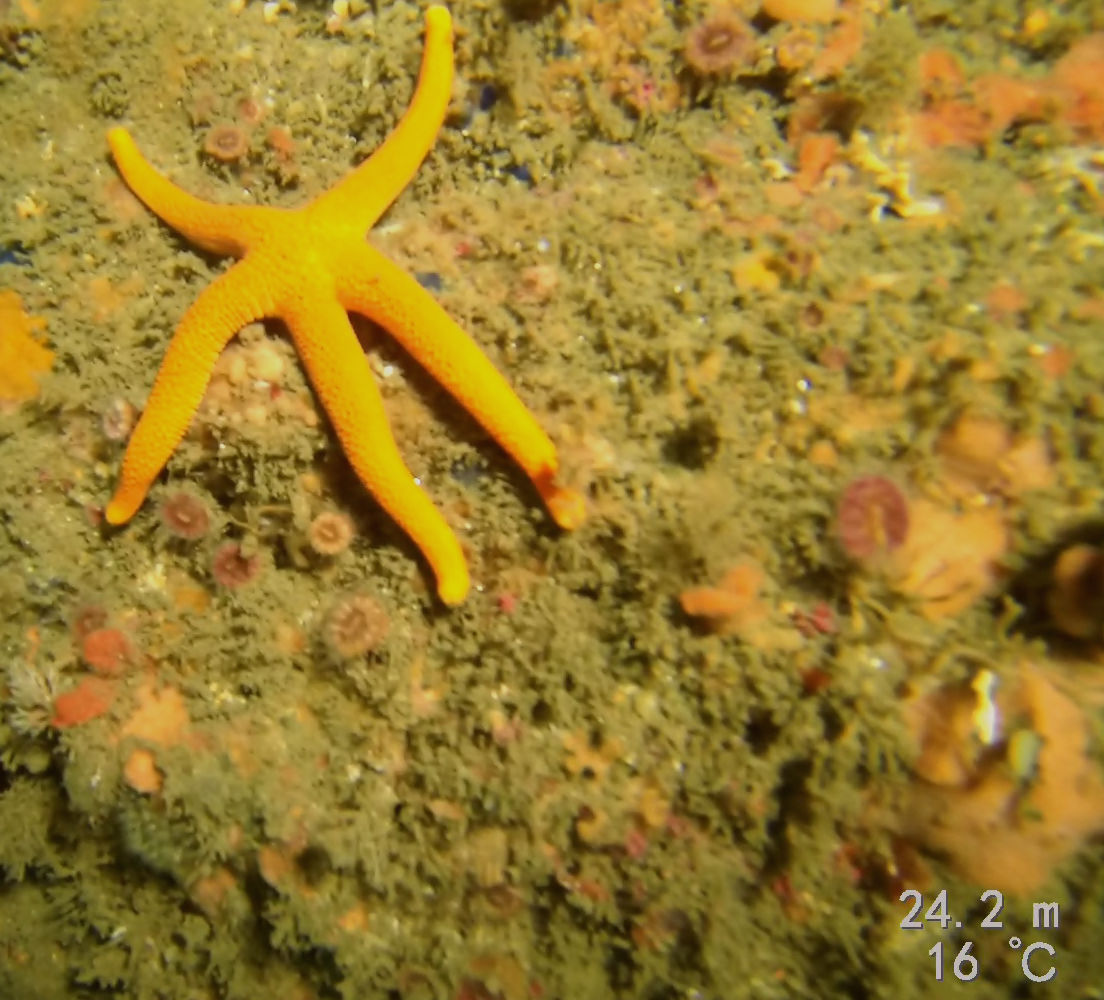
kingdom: Animalia
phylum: Echinodermata
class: Asteroidea
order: Spinulosida
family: Echinasteridae
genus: Henricia
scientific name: Henricia
